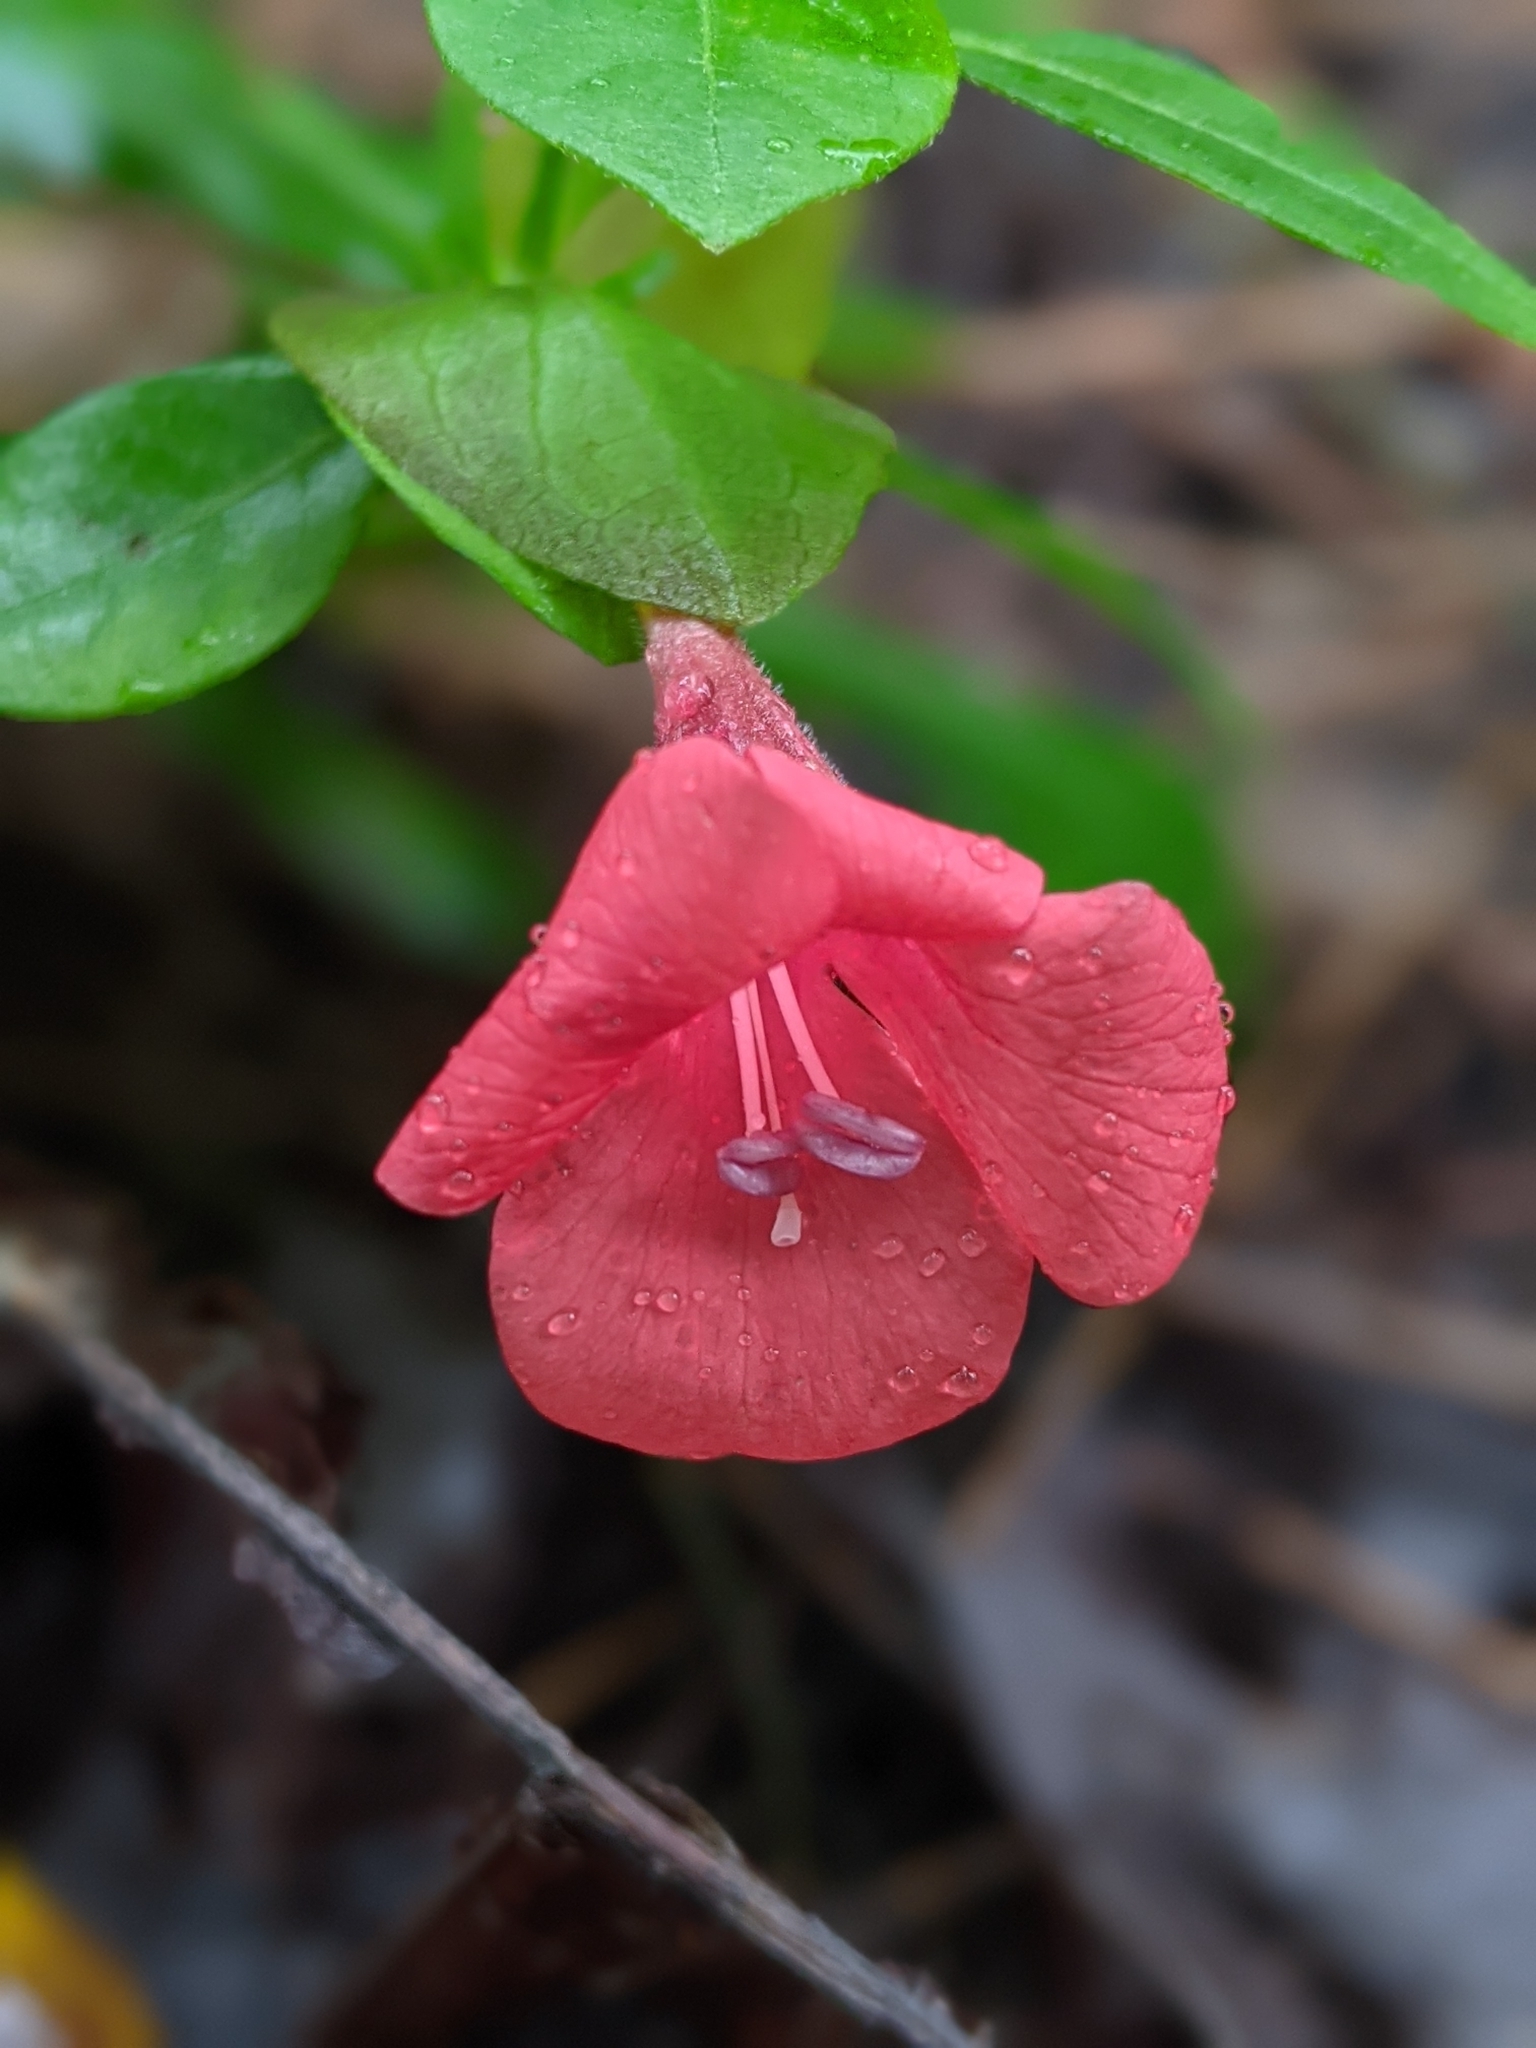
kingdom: Plantae
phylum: Tracheophyta
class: Magnoliopsida
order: Lamiales
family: Acanthaceae
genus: Barleria
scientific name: Barleria repens
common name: Pink-ruellia
